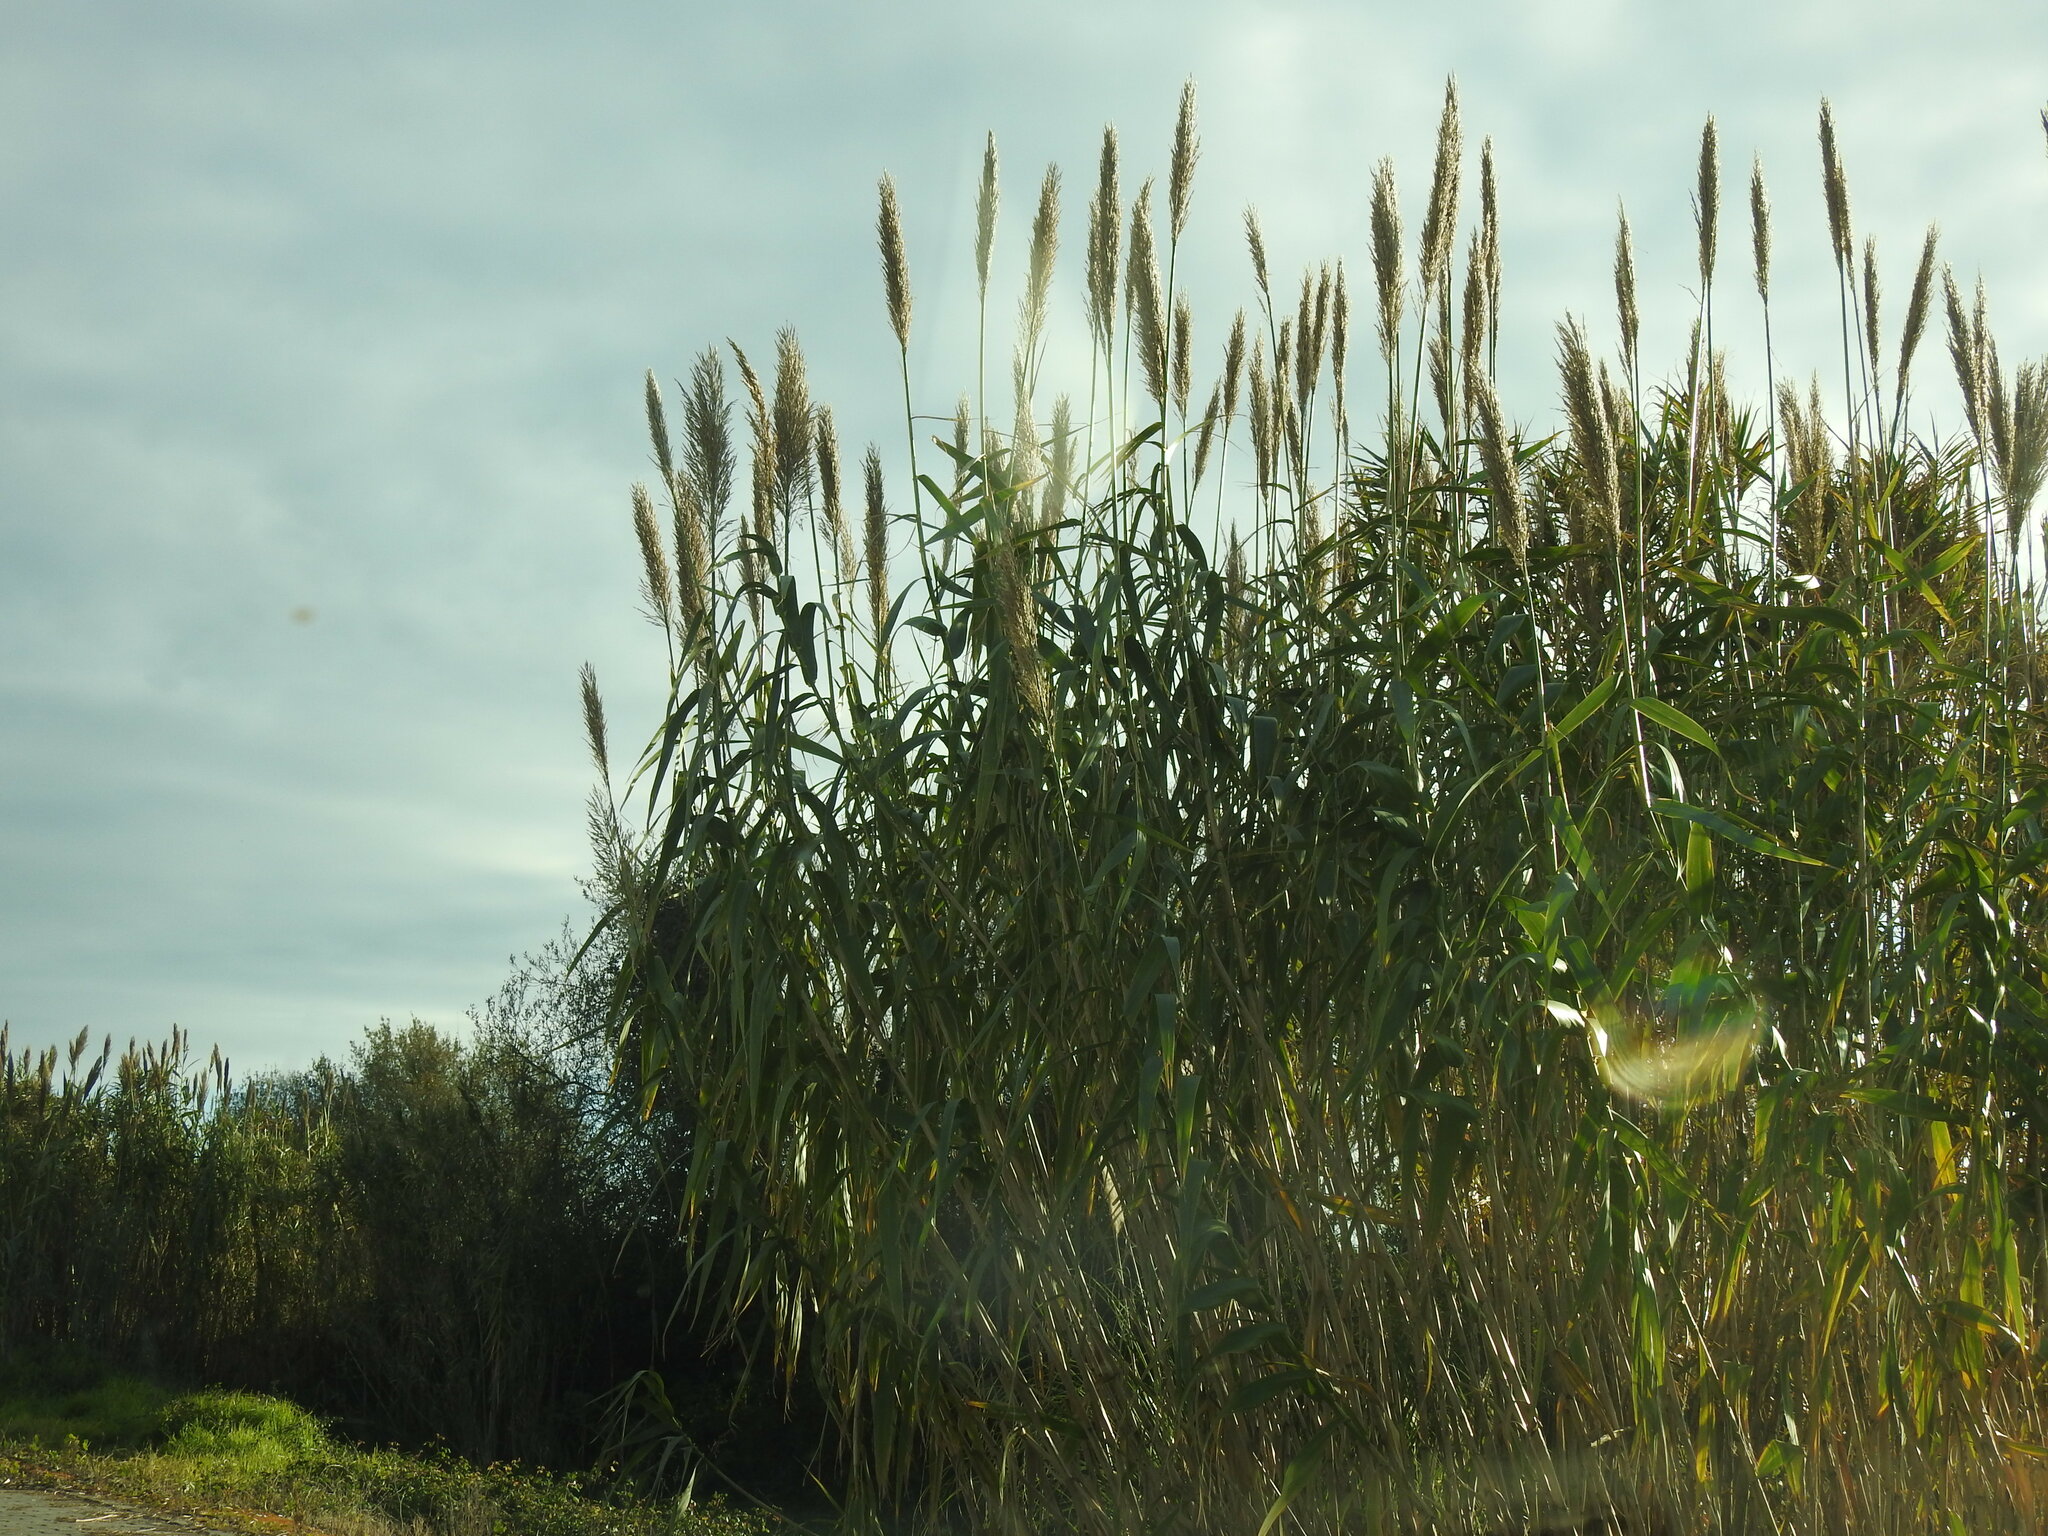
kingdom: Plantae
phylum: Tracheophyta
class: Liliopsida
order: Poales
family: Poaceae
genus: Arundo
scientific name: Arundo donax
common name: Giant reed
